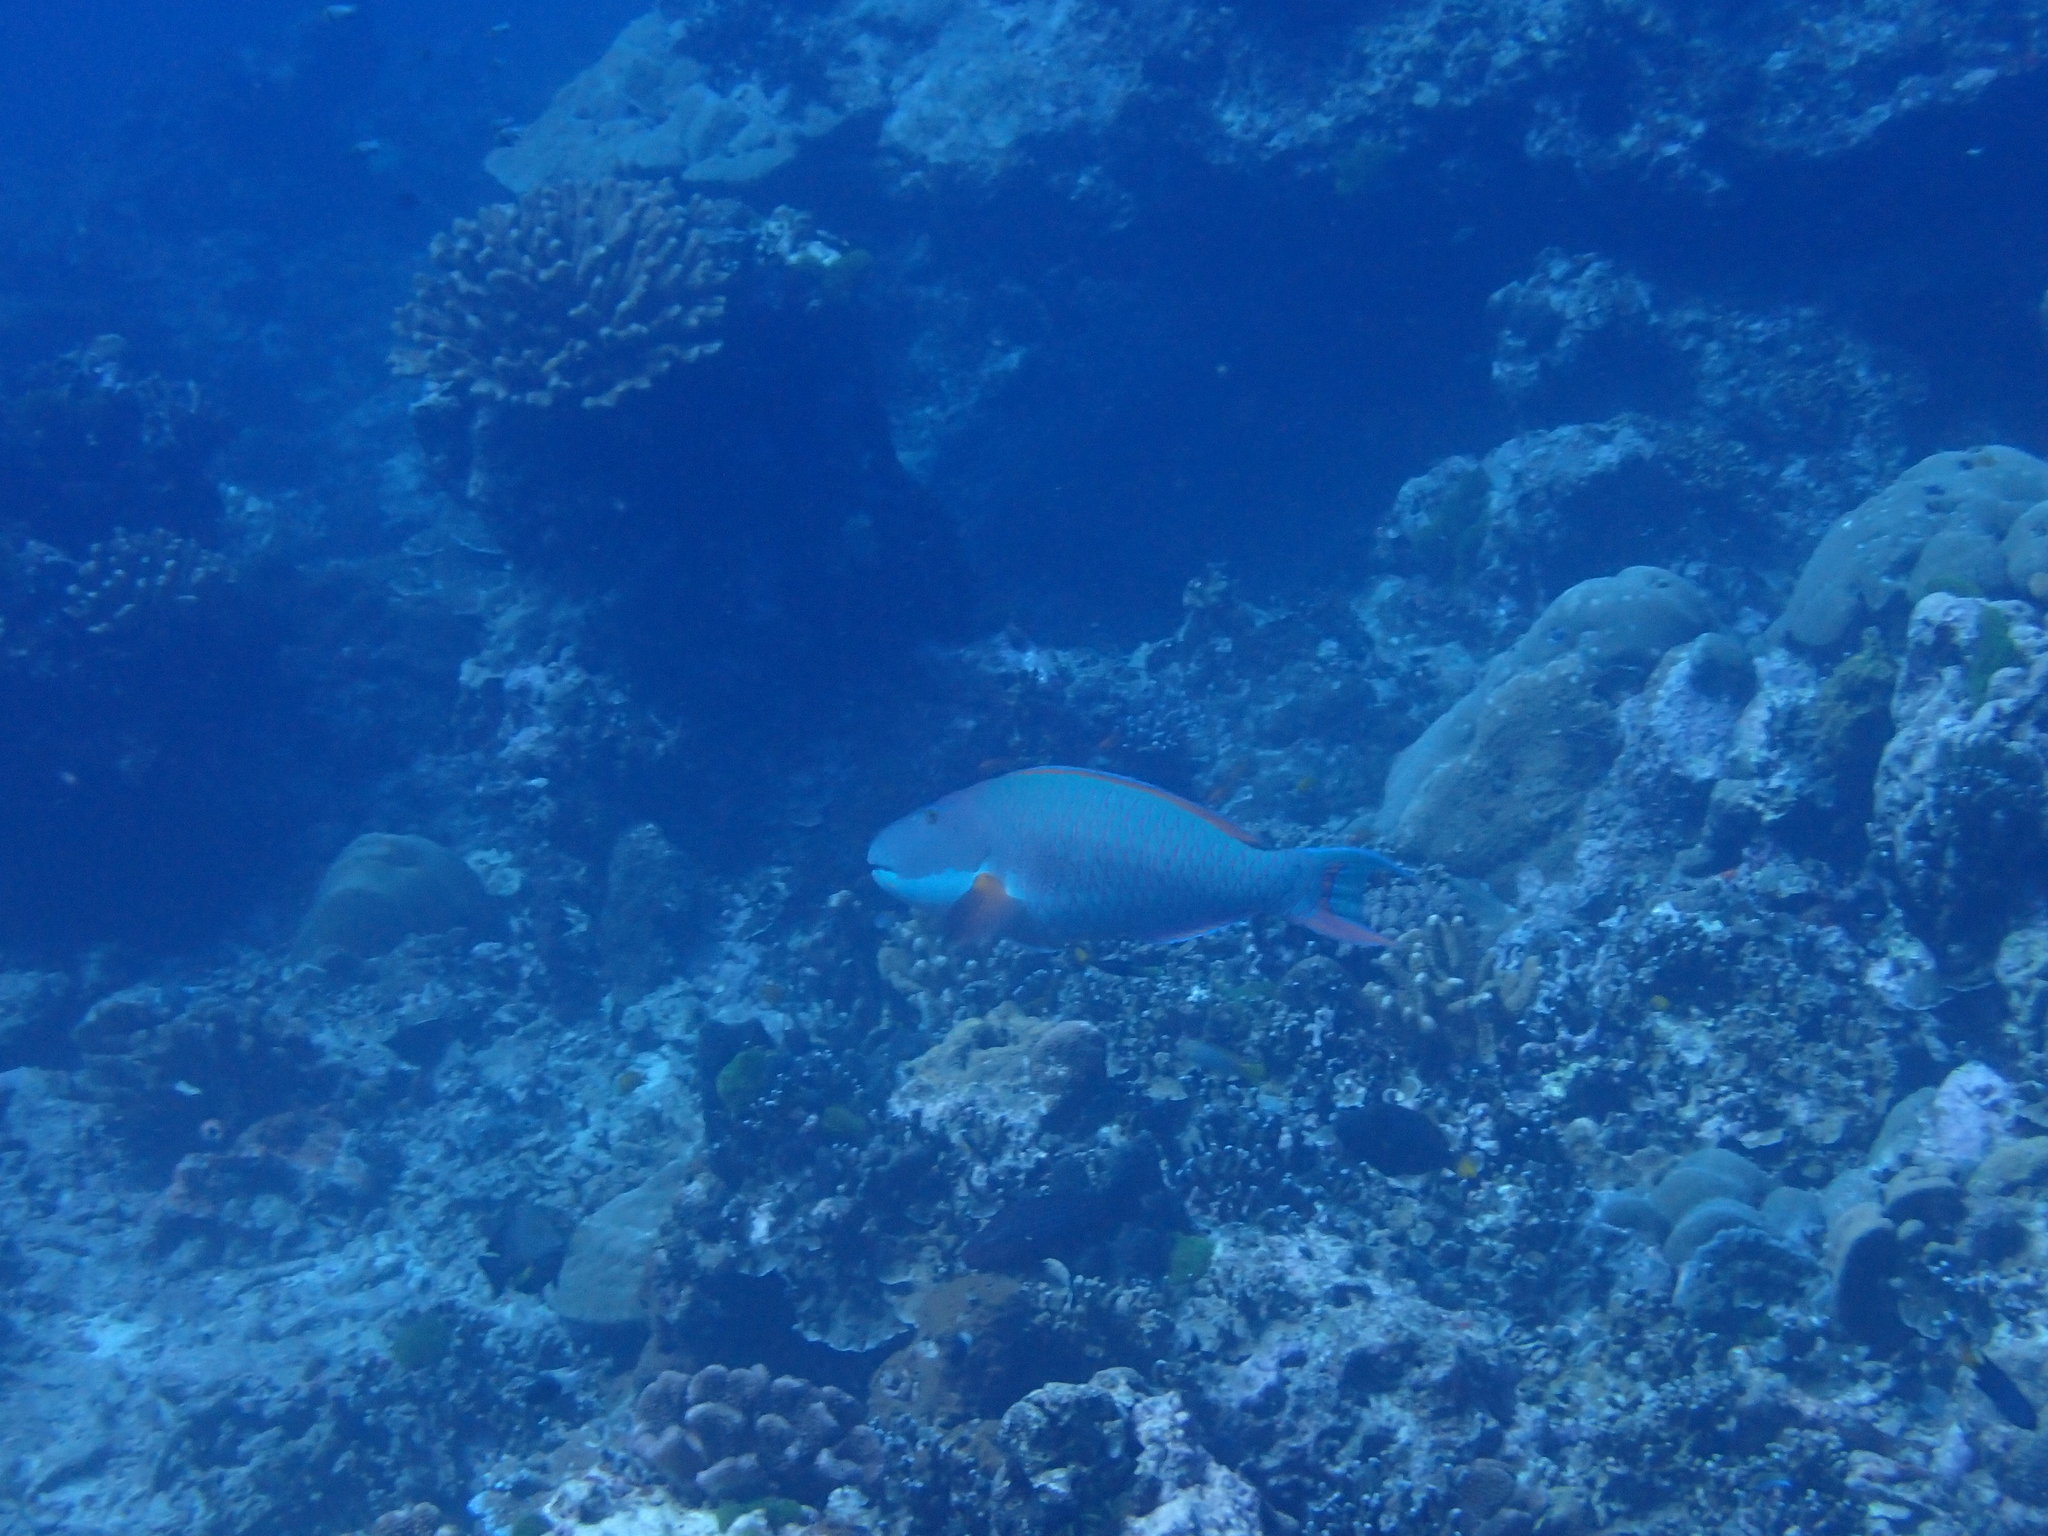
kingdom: Animalia
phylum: Chordata
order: Perciformes
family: Scaridae
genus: Cetoscarus
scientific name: Cetoscarus ocellatus
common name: Bicolor parrotfish
